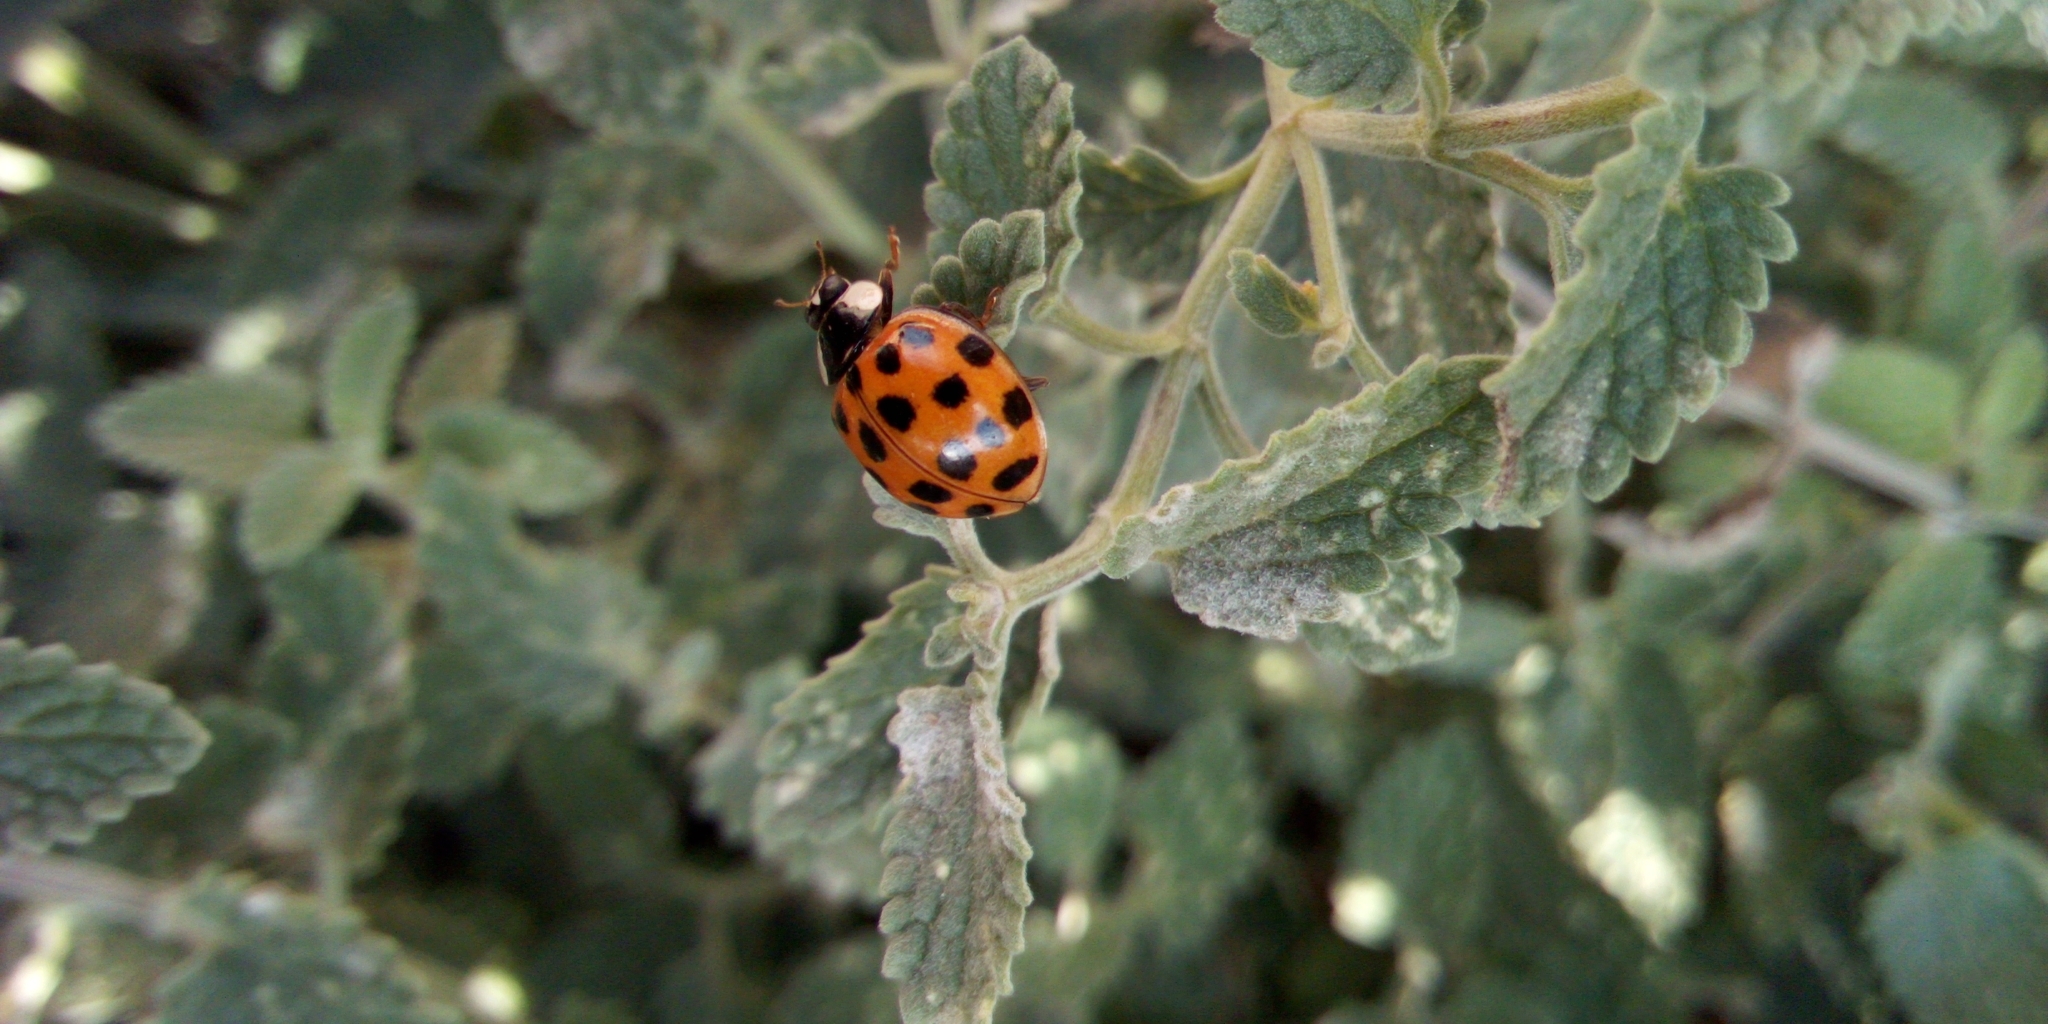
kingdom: Animalia
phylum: Arthropoda
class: Insecta
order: Coleoptera
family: Coccinellidae
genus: Harmonia
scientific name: Harmonia axyridis
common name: Harlequin ladybird
